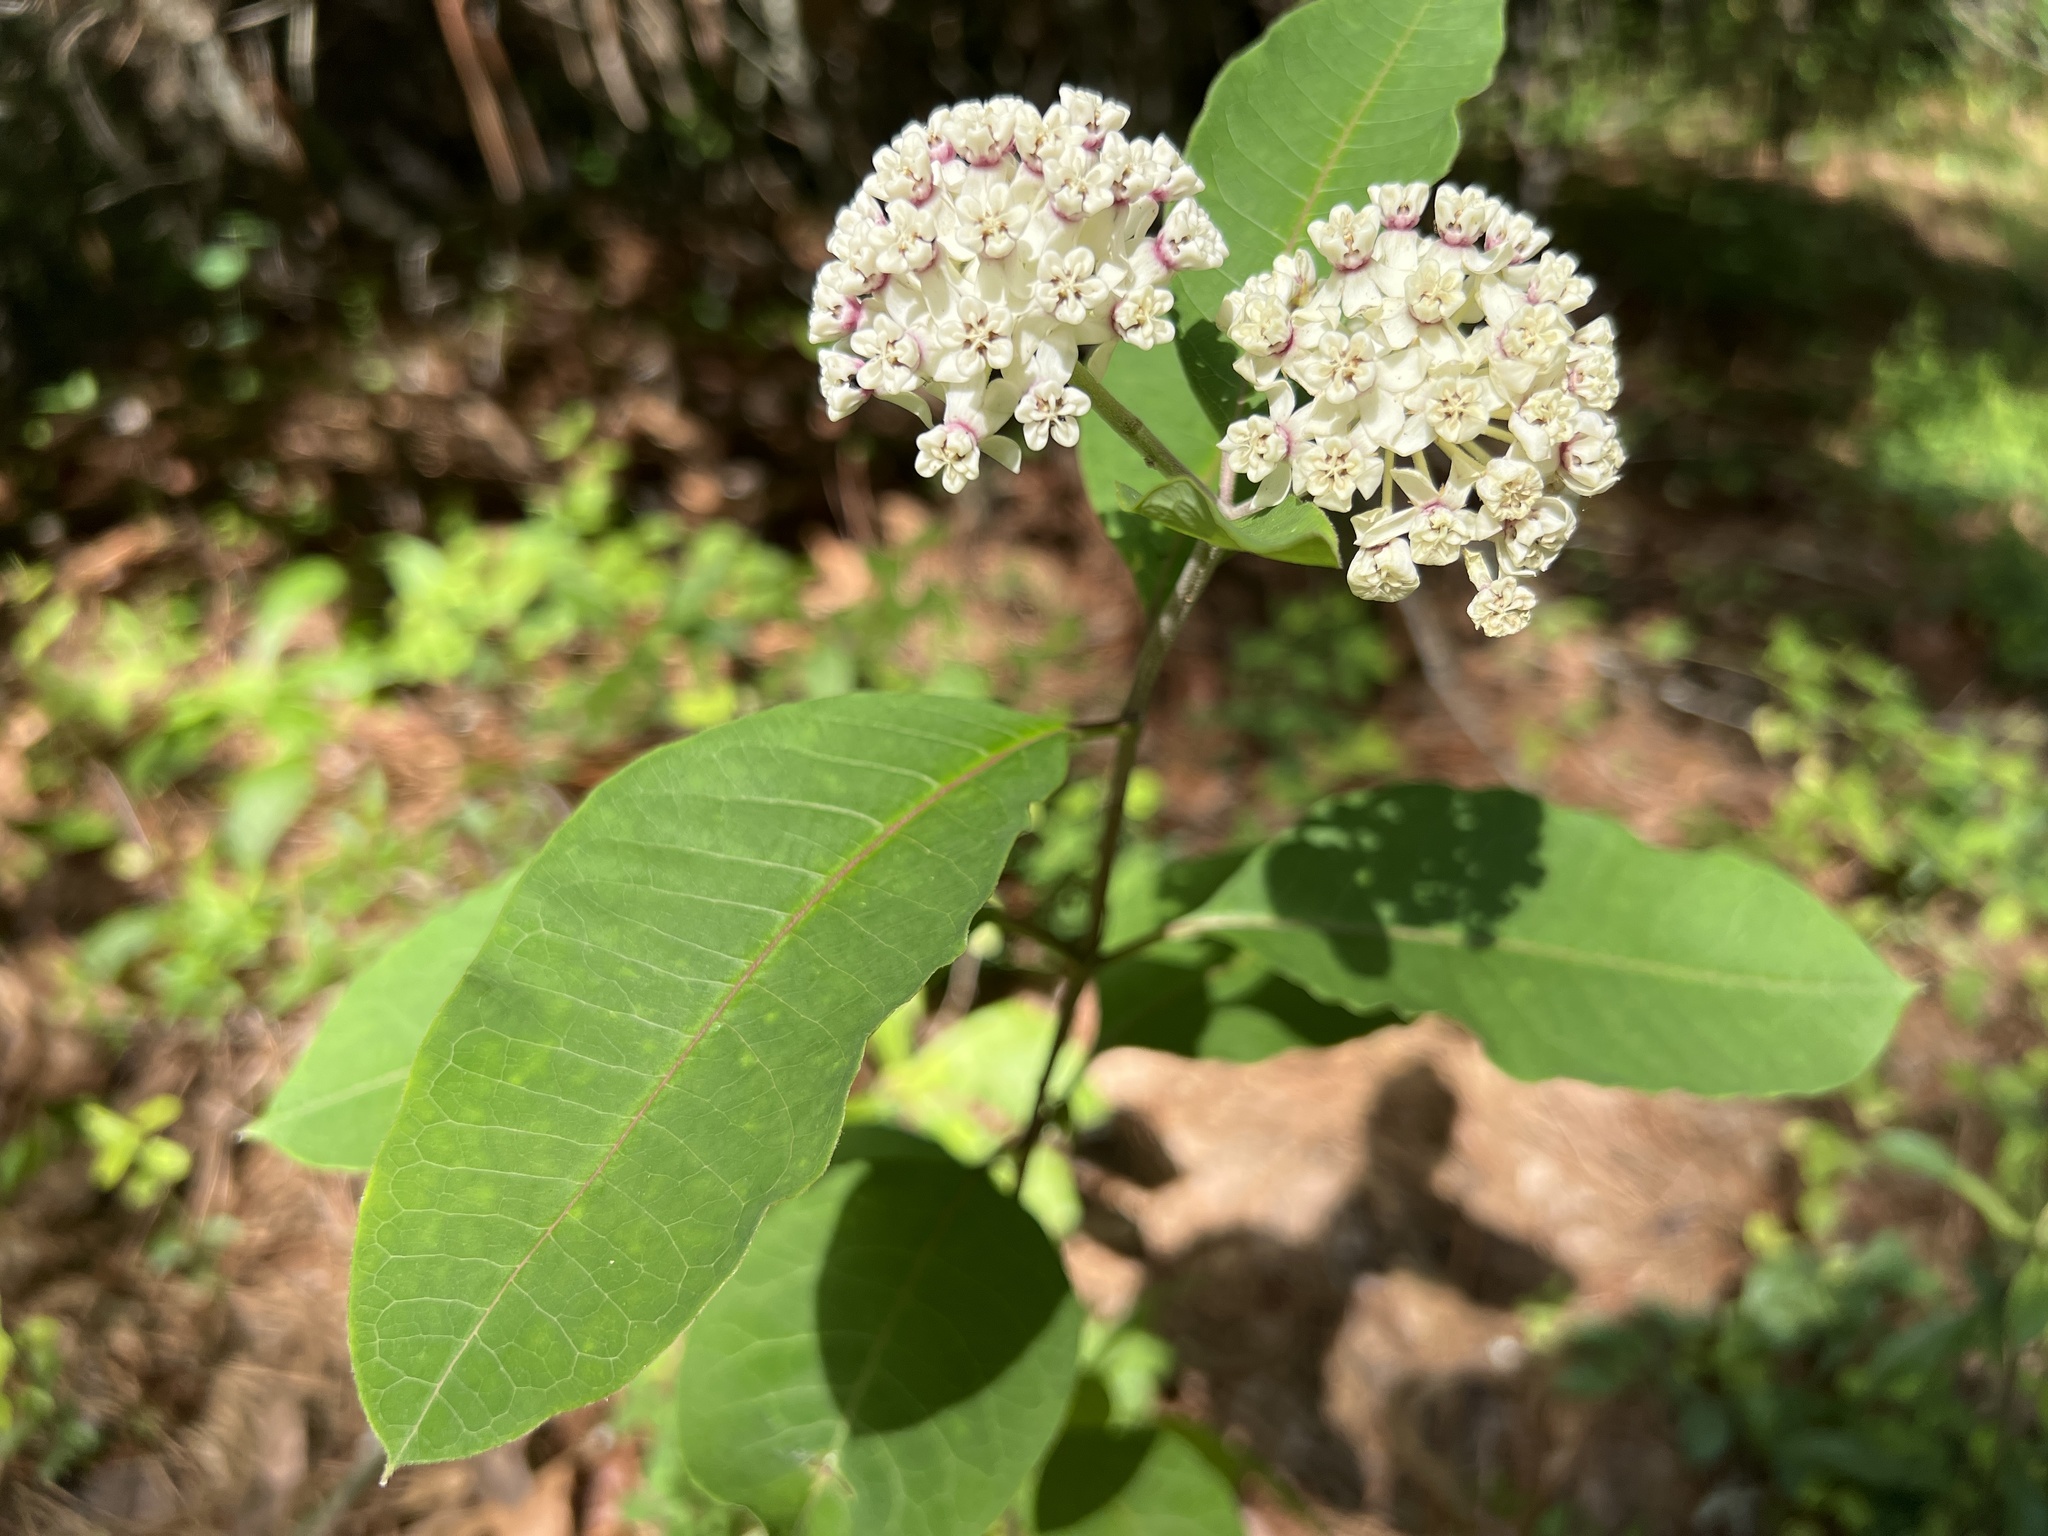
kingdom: Plantae
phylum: Tracheophyta
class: Magnoliopsida
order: Gentianales
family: Apocynaceae
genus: Asclepias
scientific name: Asclepias variegata
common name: Variegated milkweed
